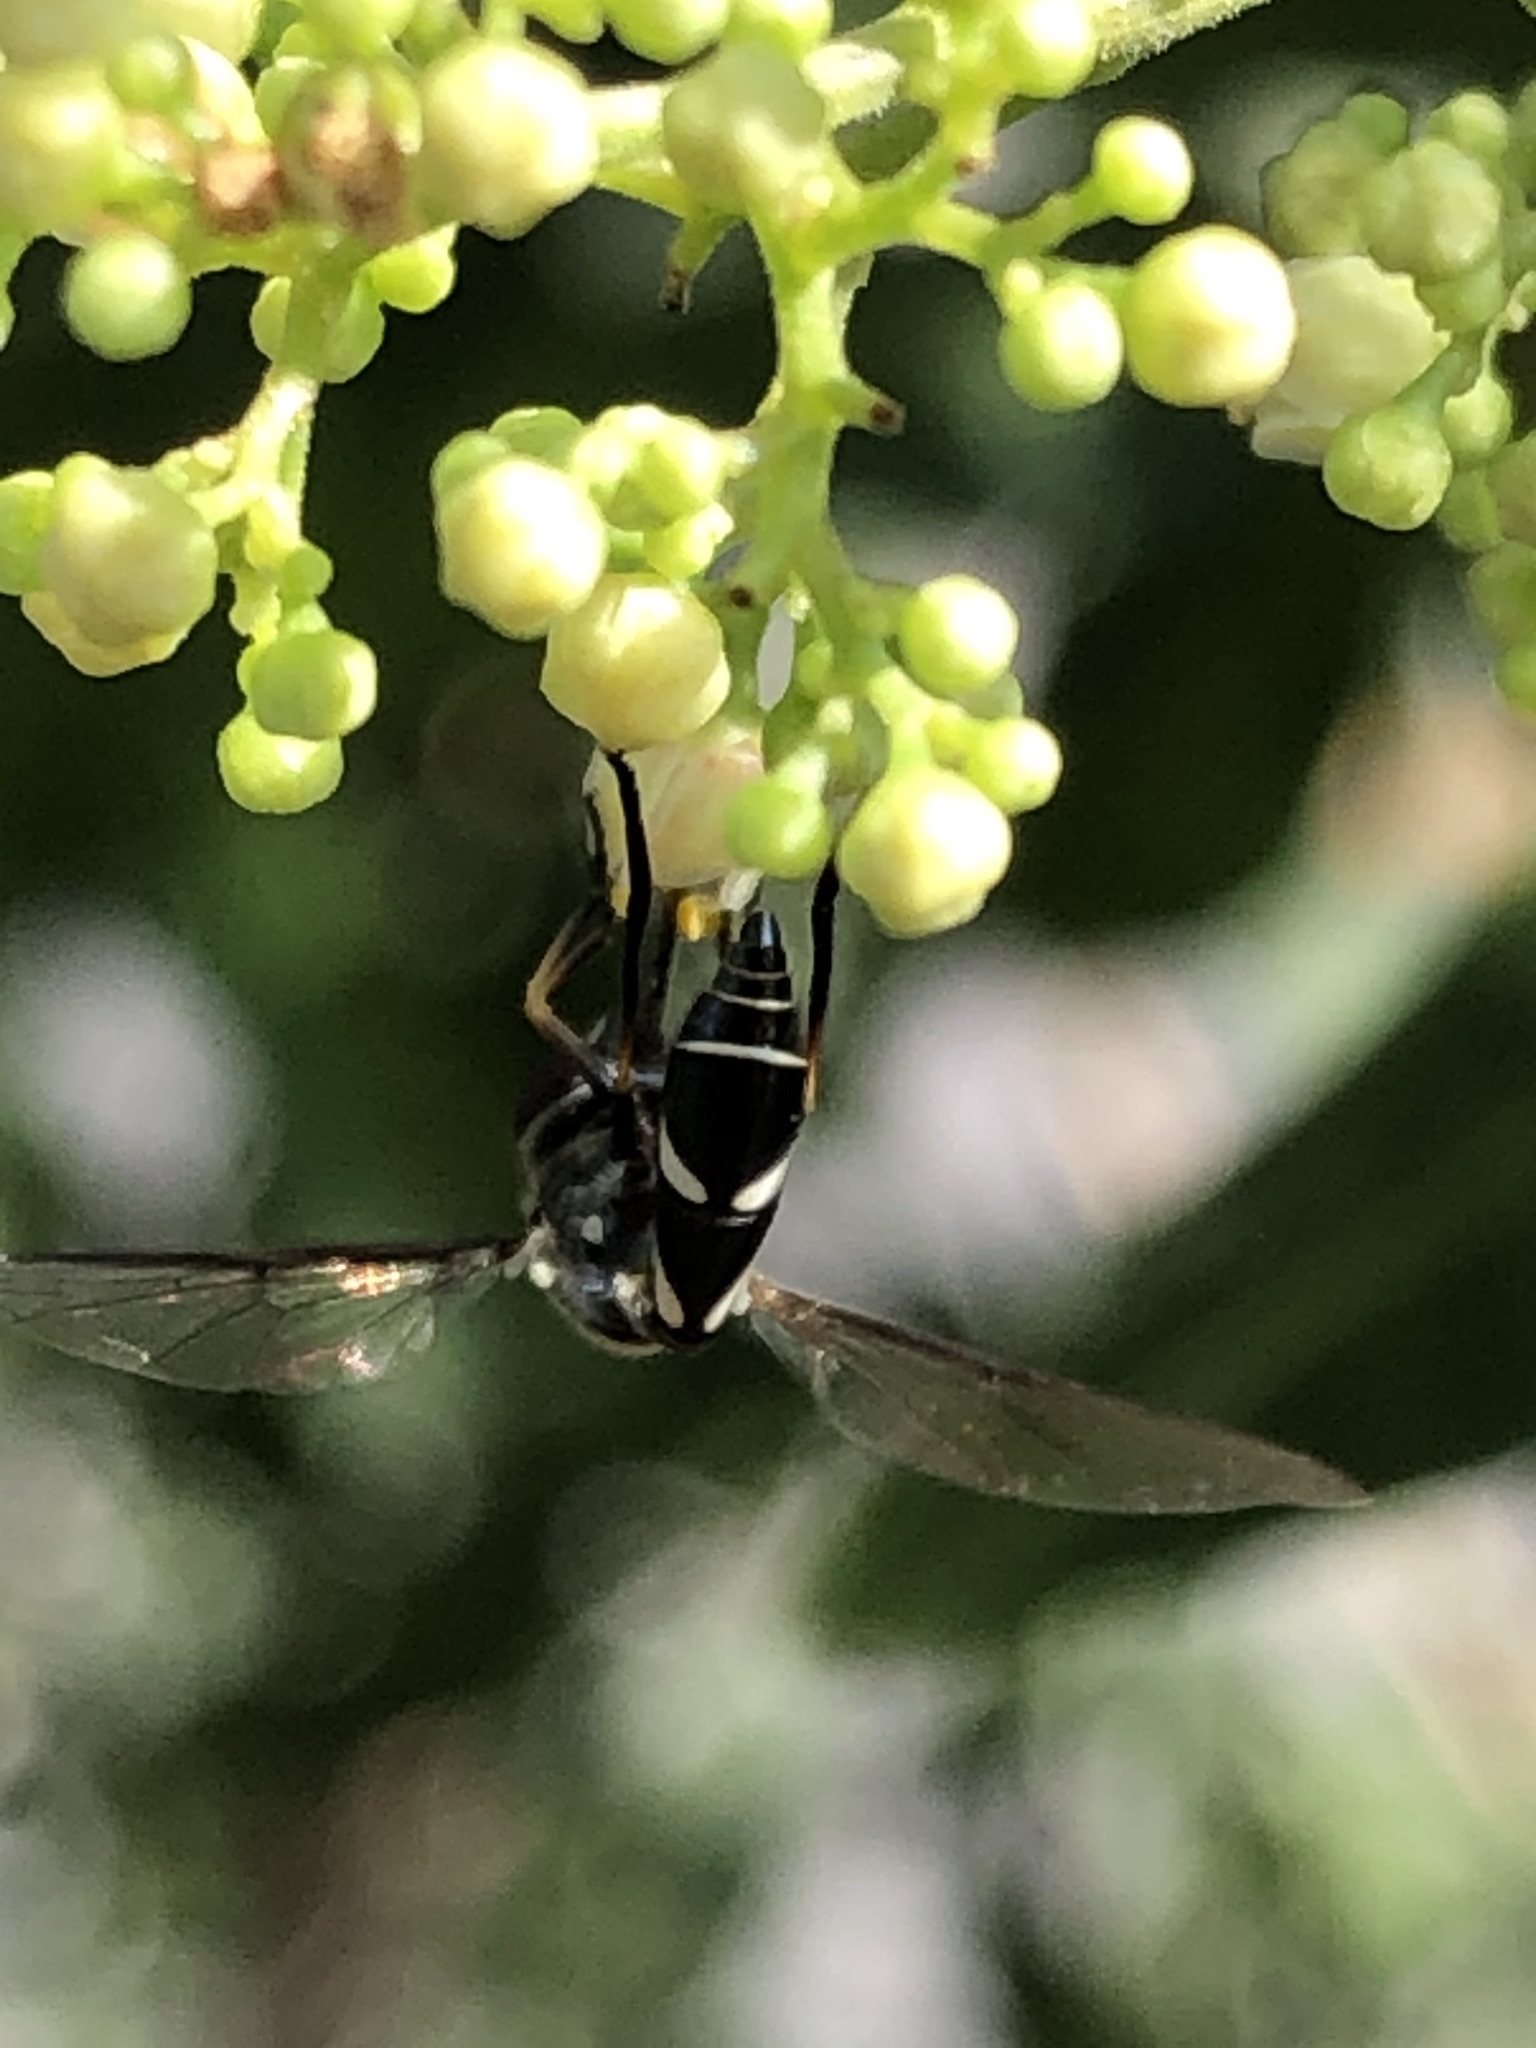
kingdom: Animalia
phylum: Arthropoda
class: Insecta
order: Diptera
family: Syrphidae
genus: Dioprosopa
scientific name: Dioprosopa clavatus
